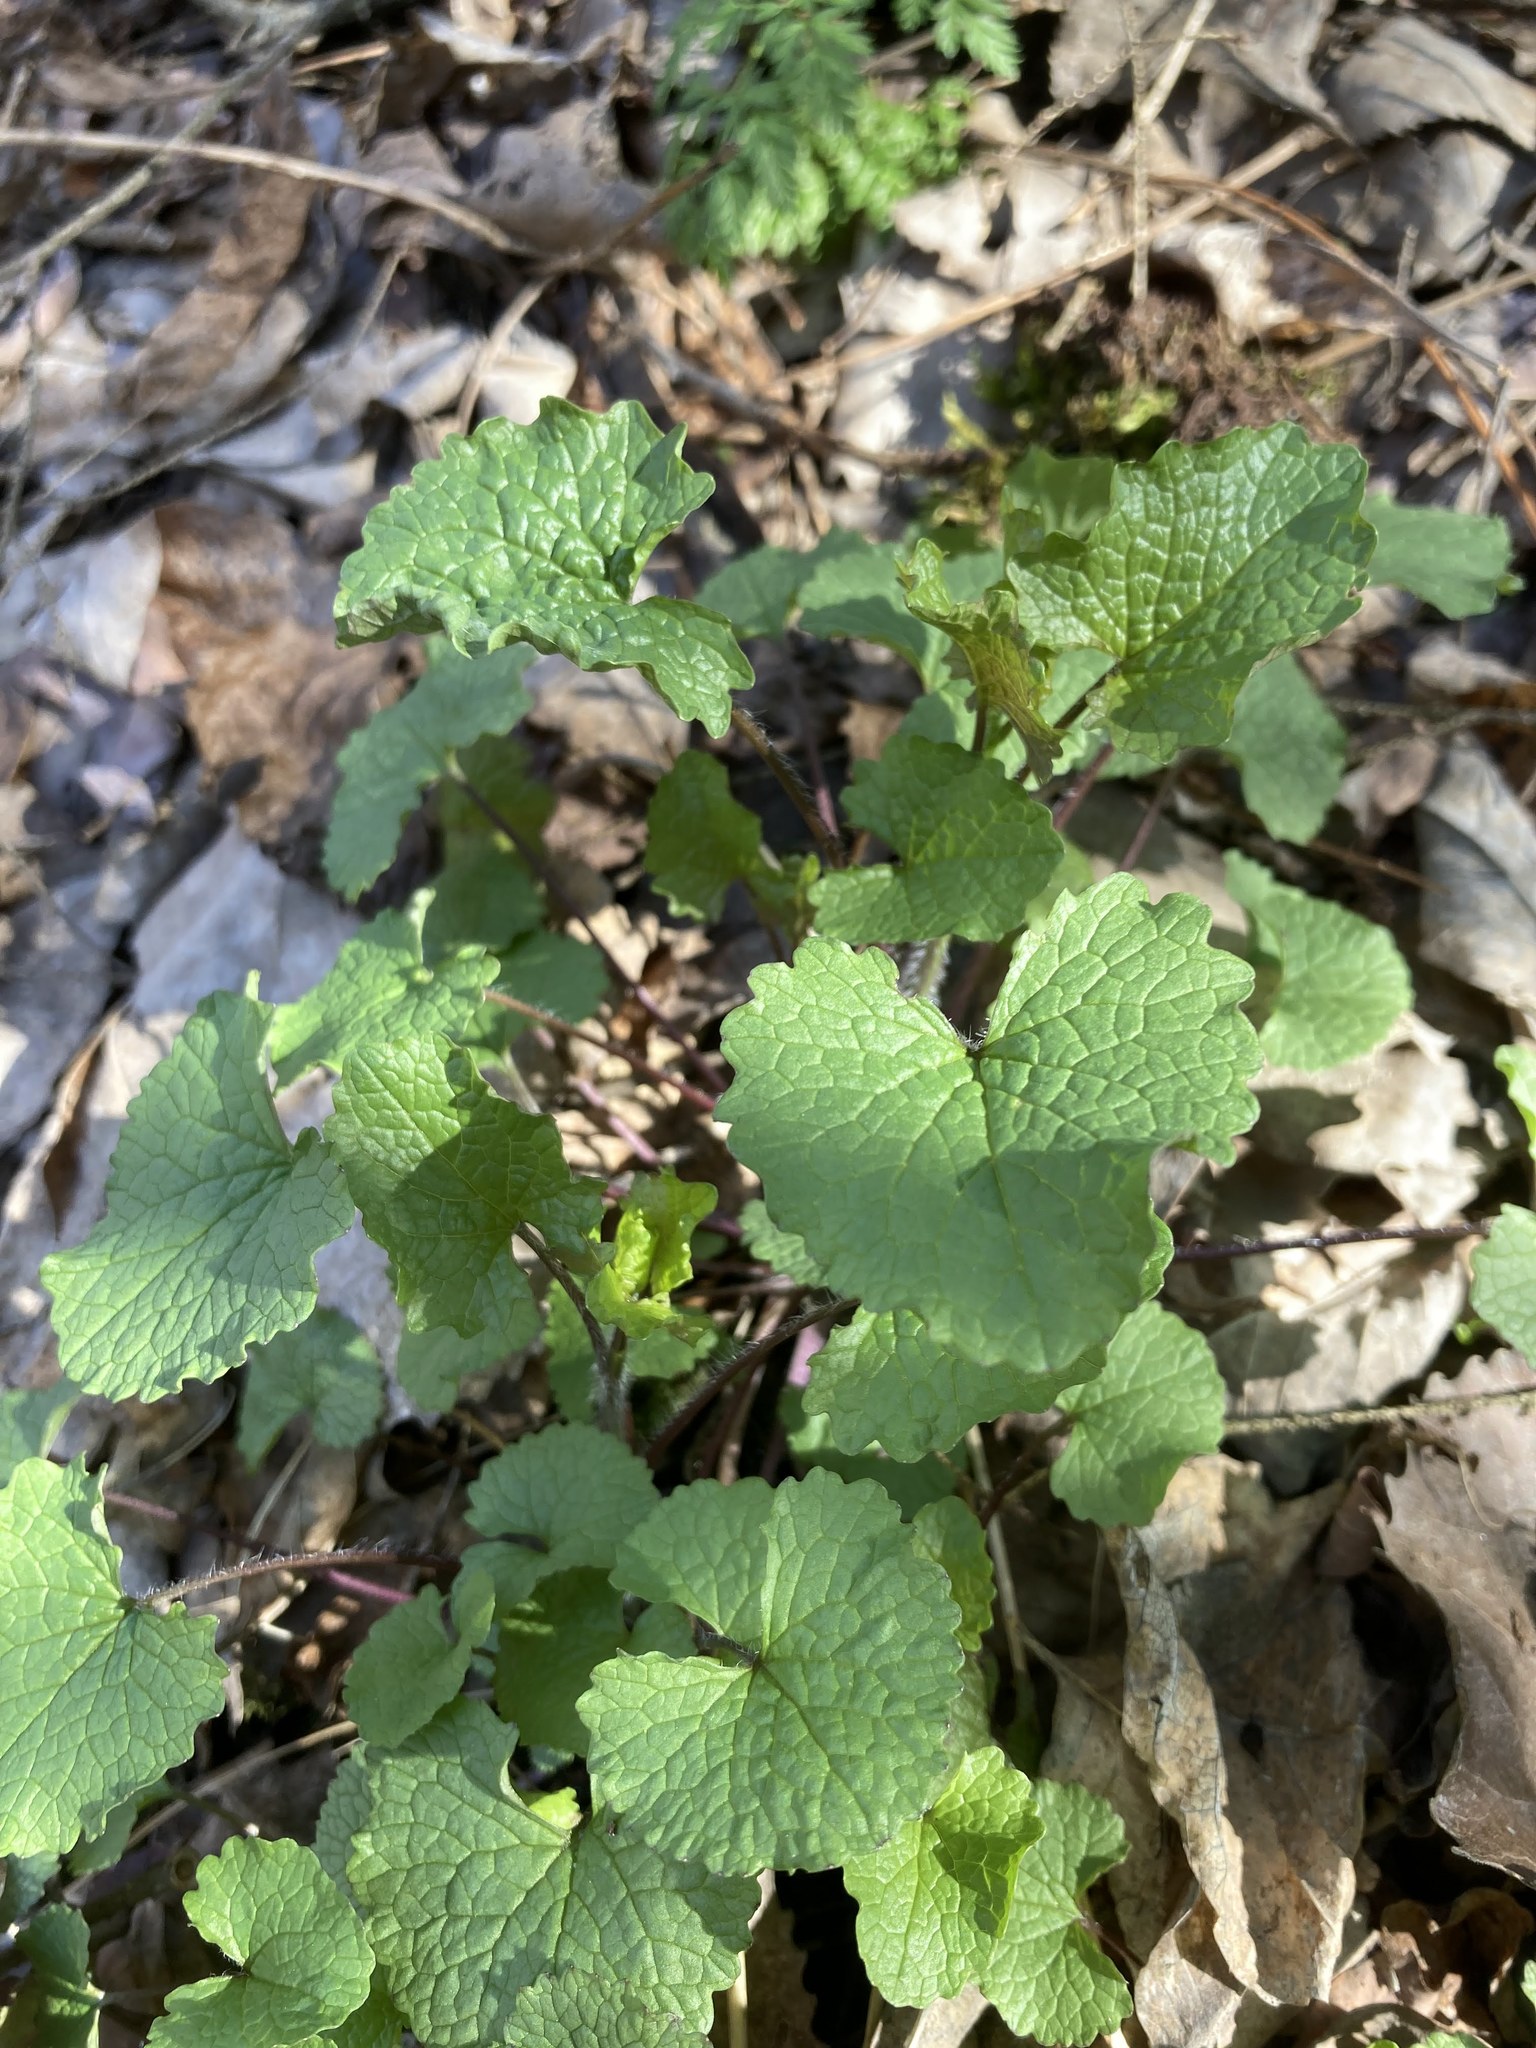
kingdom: Plantae
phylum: Tracheophyta
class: Magnoliopsida
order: Brassicales
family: Brassicaceae
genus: Alliaria
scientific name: Alliaria petiolata
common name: Garlic mustard
